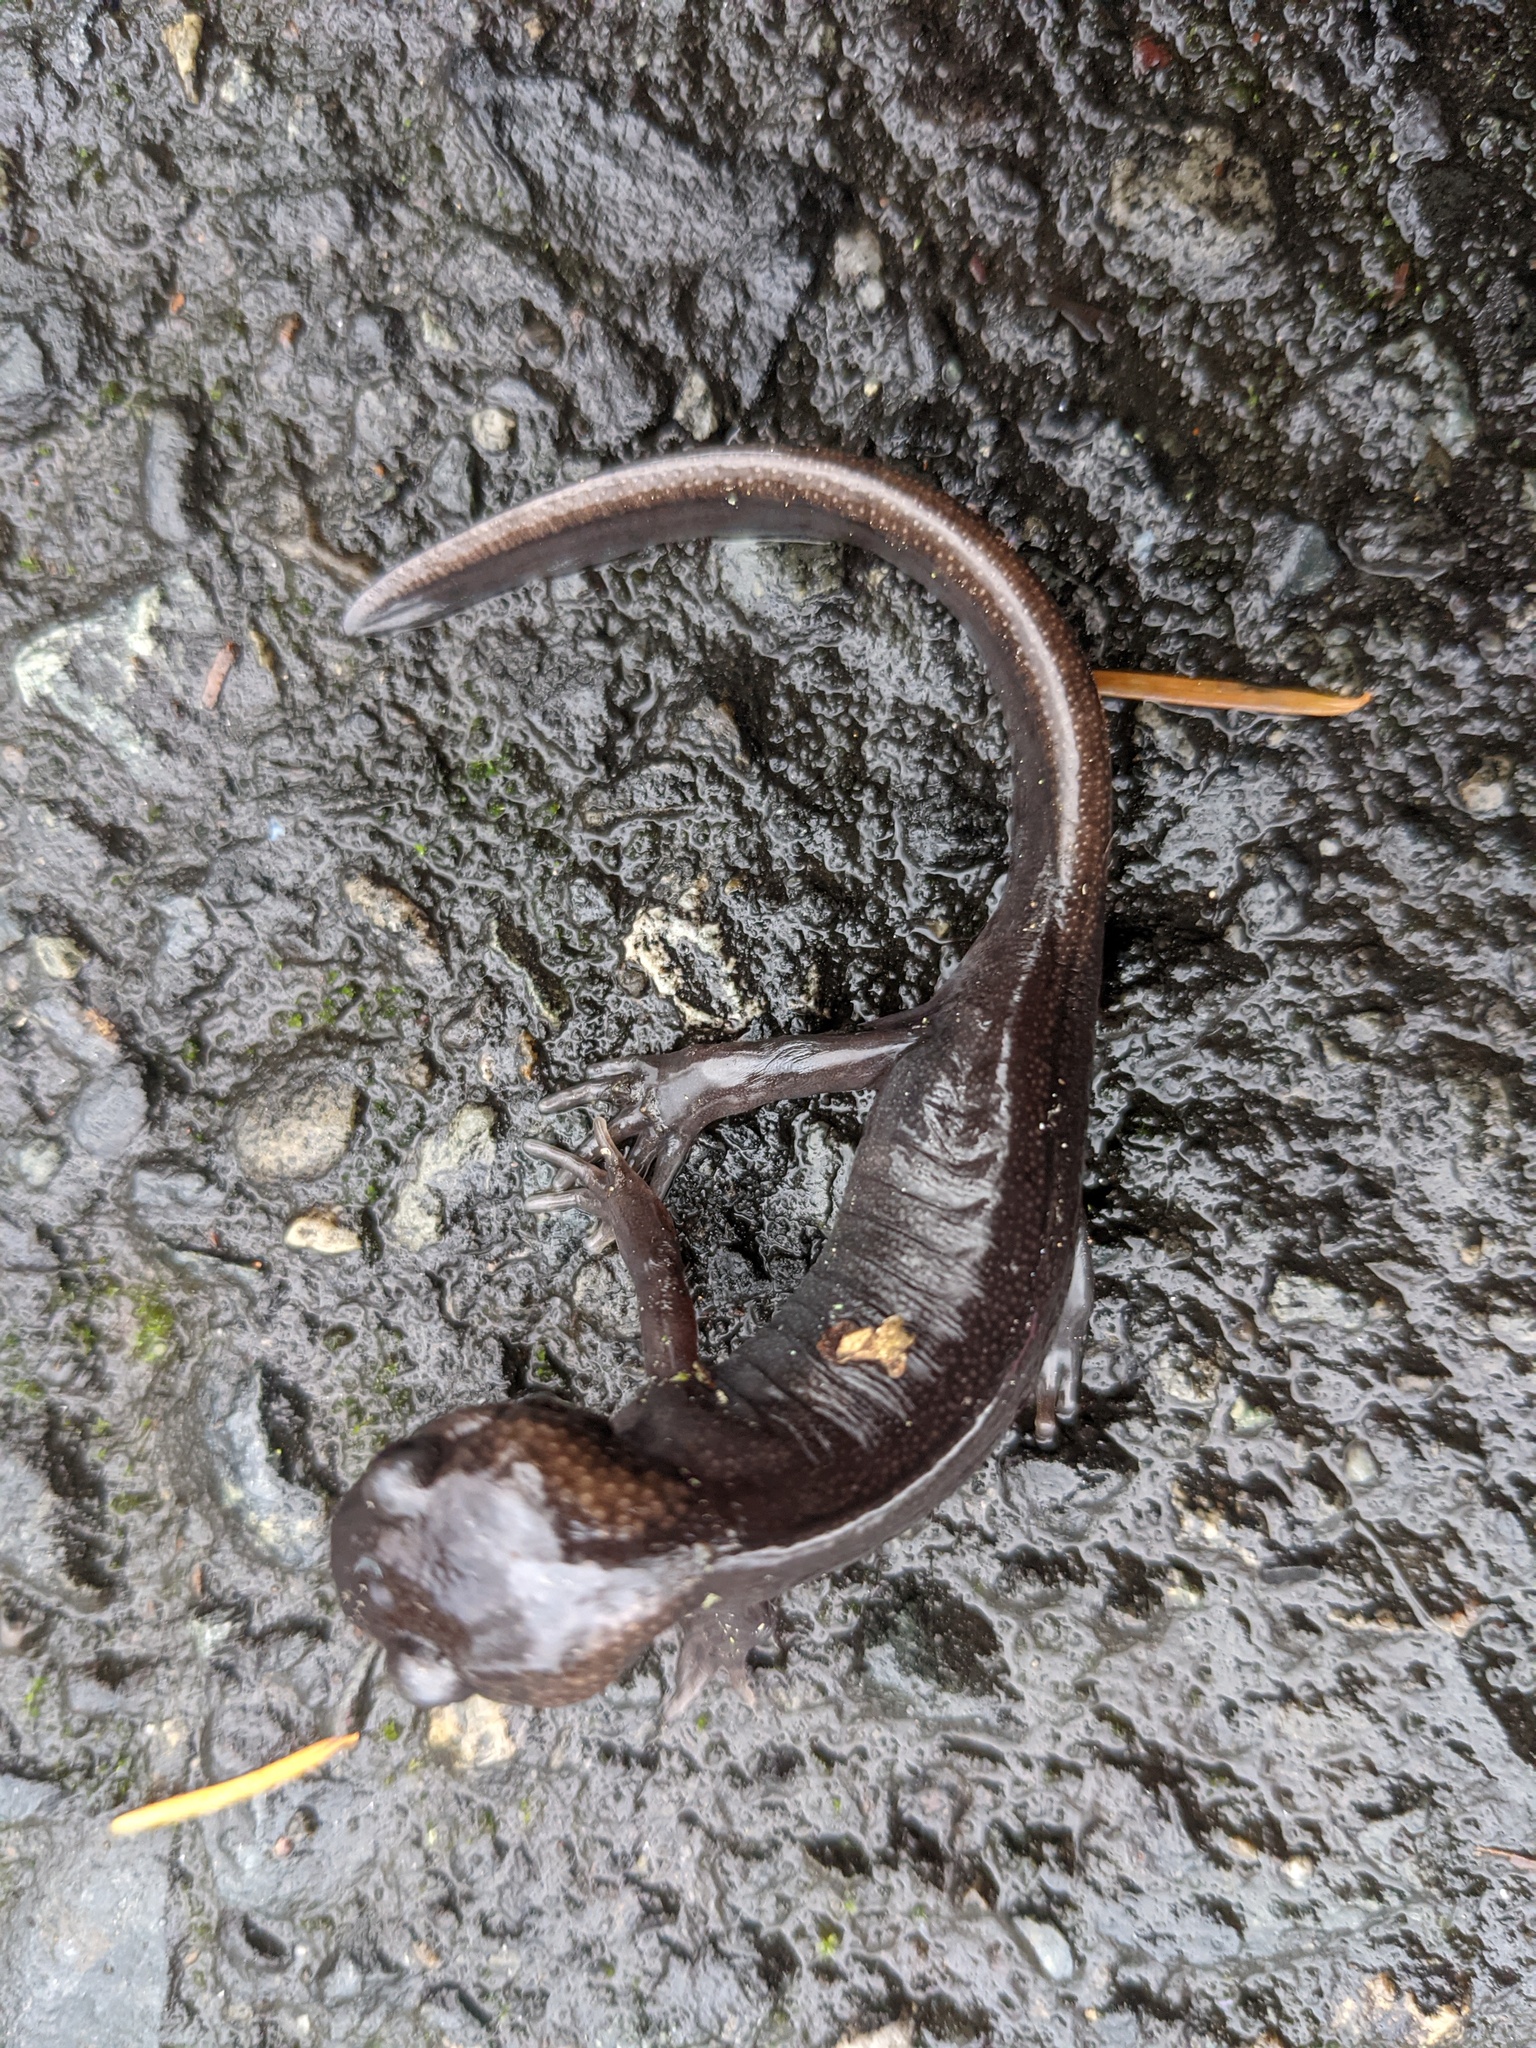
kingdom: Animalia
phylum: Chordata
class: Amphibia
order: Caudata
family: Ambystomatidae
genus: Ambystoma
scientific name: Ambystoma gracile
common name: Northwestern salamander
